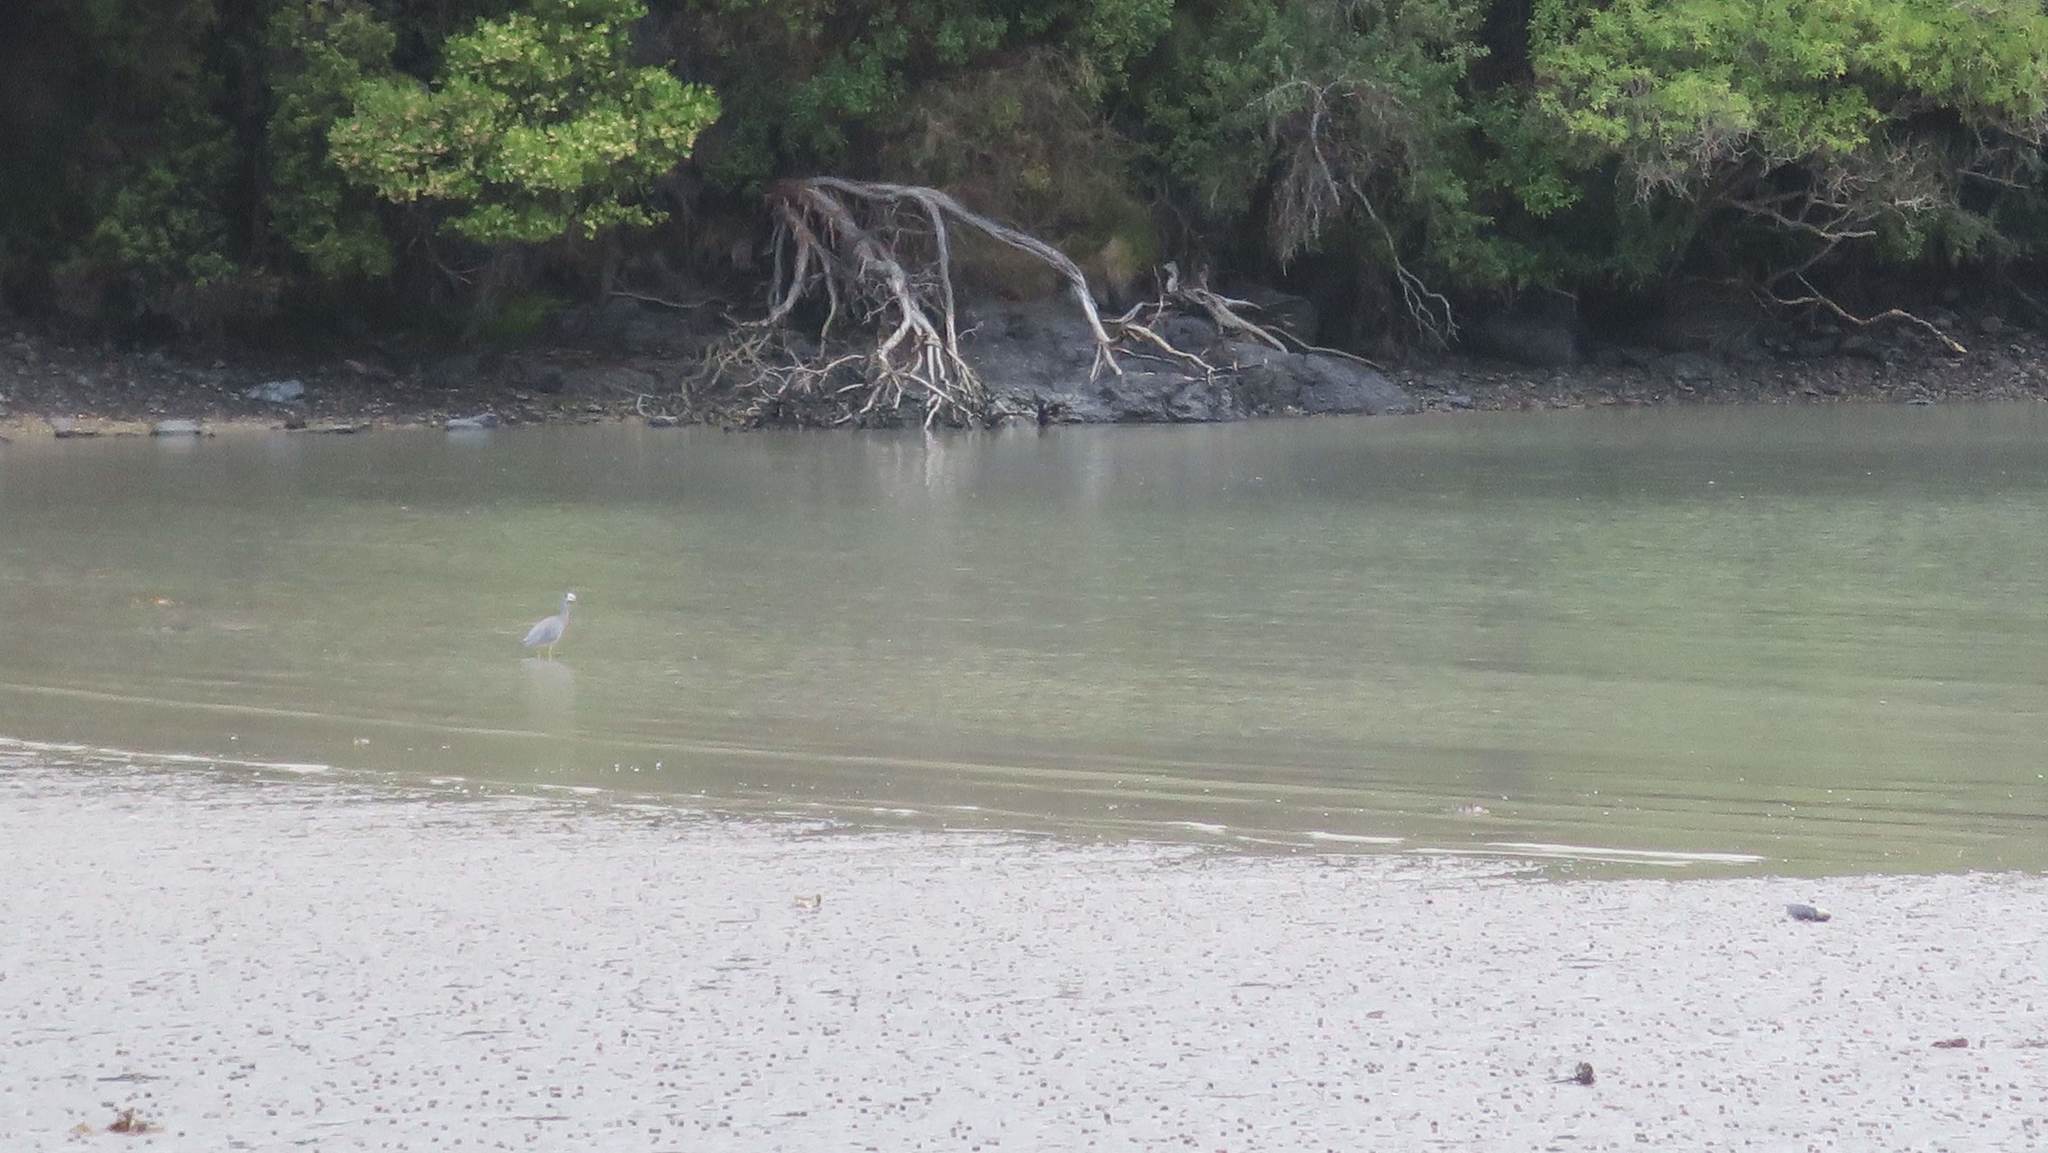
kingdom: Animalia
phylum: Chordata
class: Aves
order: Pelecaniformes
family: Ardeidae
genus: Egretta
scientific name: Egretta novaehollandiae
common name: White-faced heron
